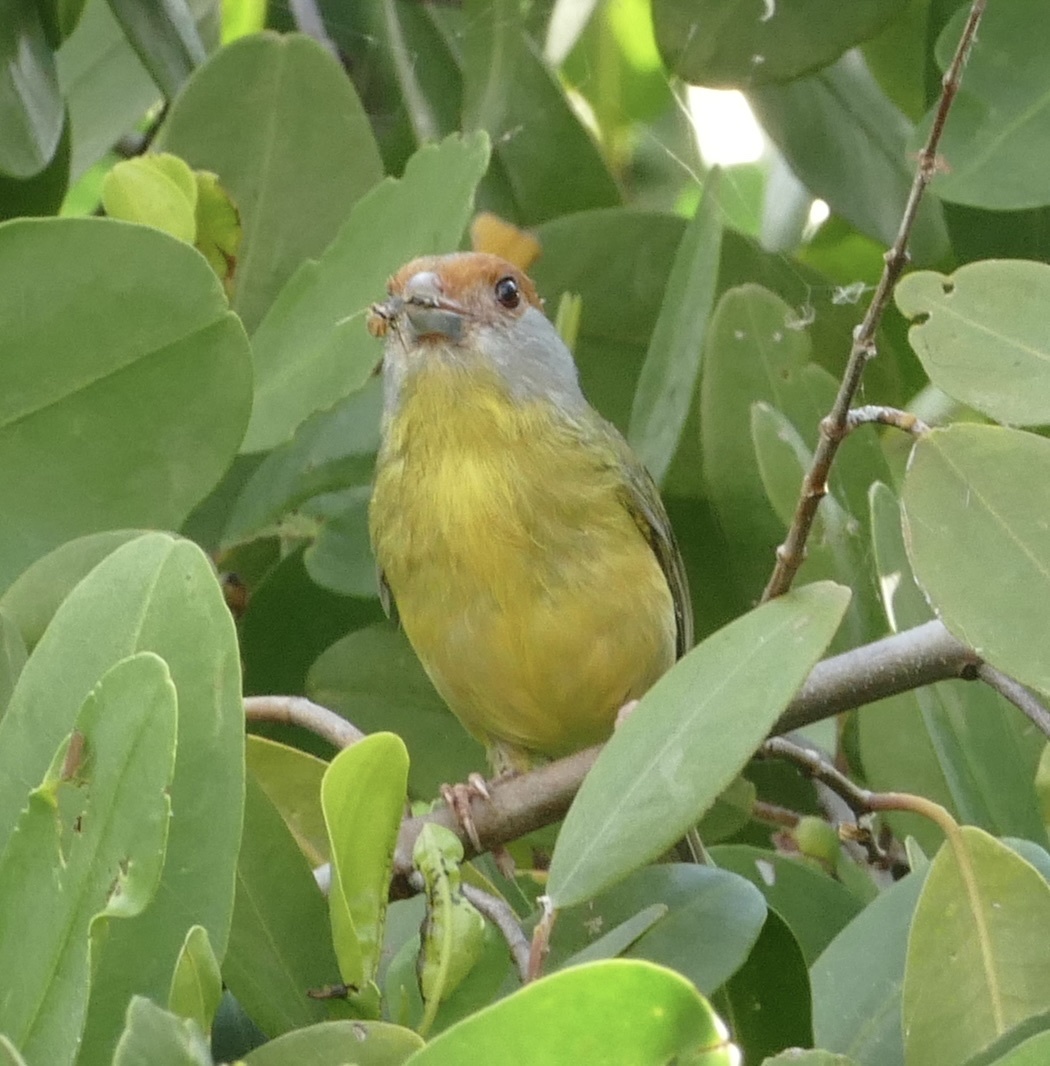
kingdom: Animalia
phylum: Chordata
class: Aves
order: Passeriformes
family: Vireonidae
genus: Cyclarhis
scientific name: Cyclarhis gujanensis
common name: Rufous-browed peppershrike
